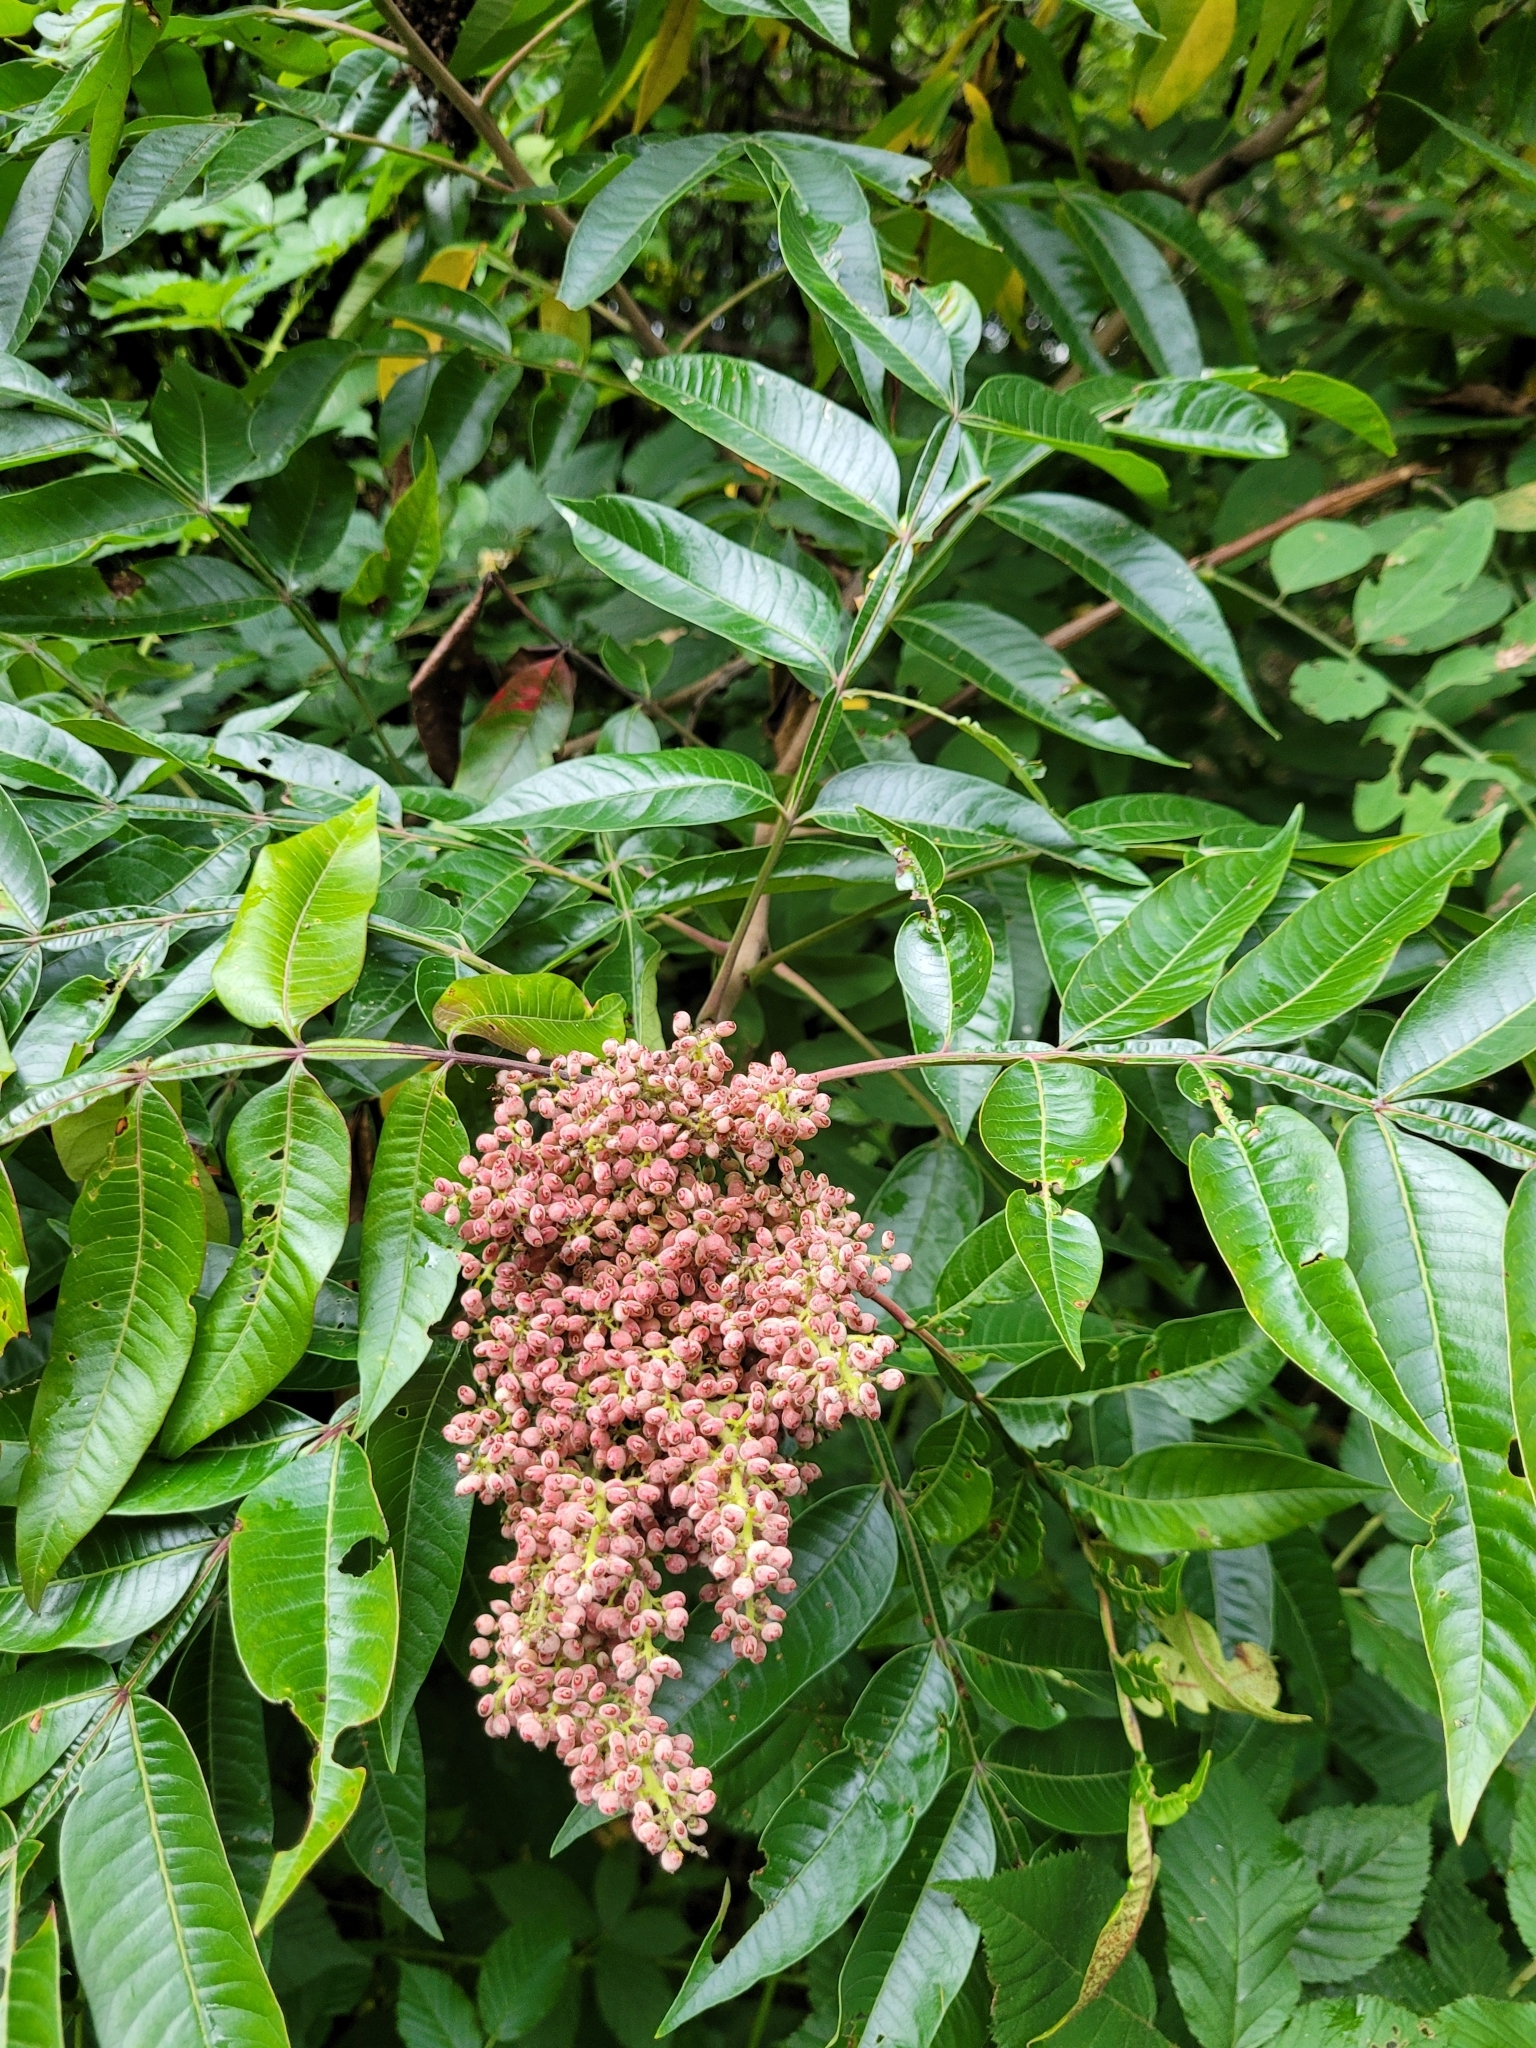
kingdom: Plantae
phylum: Tracheophyta
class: Magnoliopsida
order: Sapindales
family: Anacardiaceae
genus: Rhus
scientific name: Rhus copallina
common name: Shining sumac
